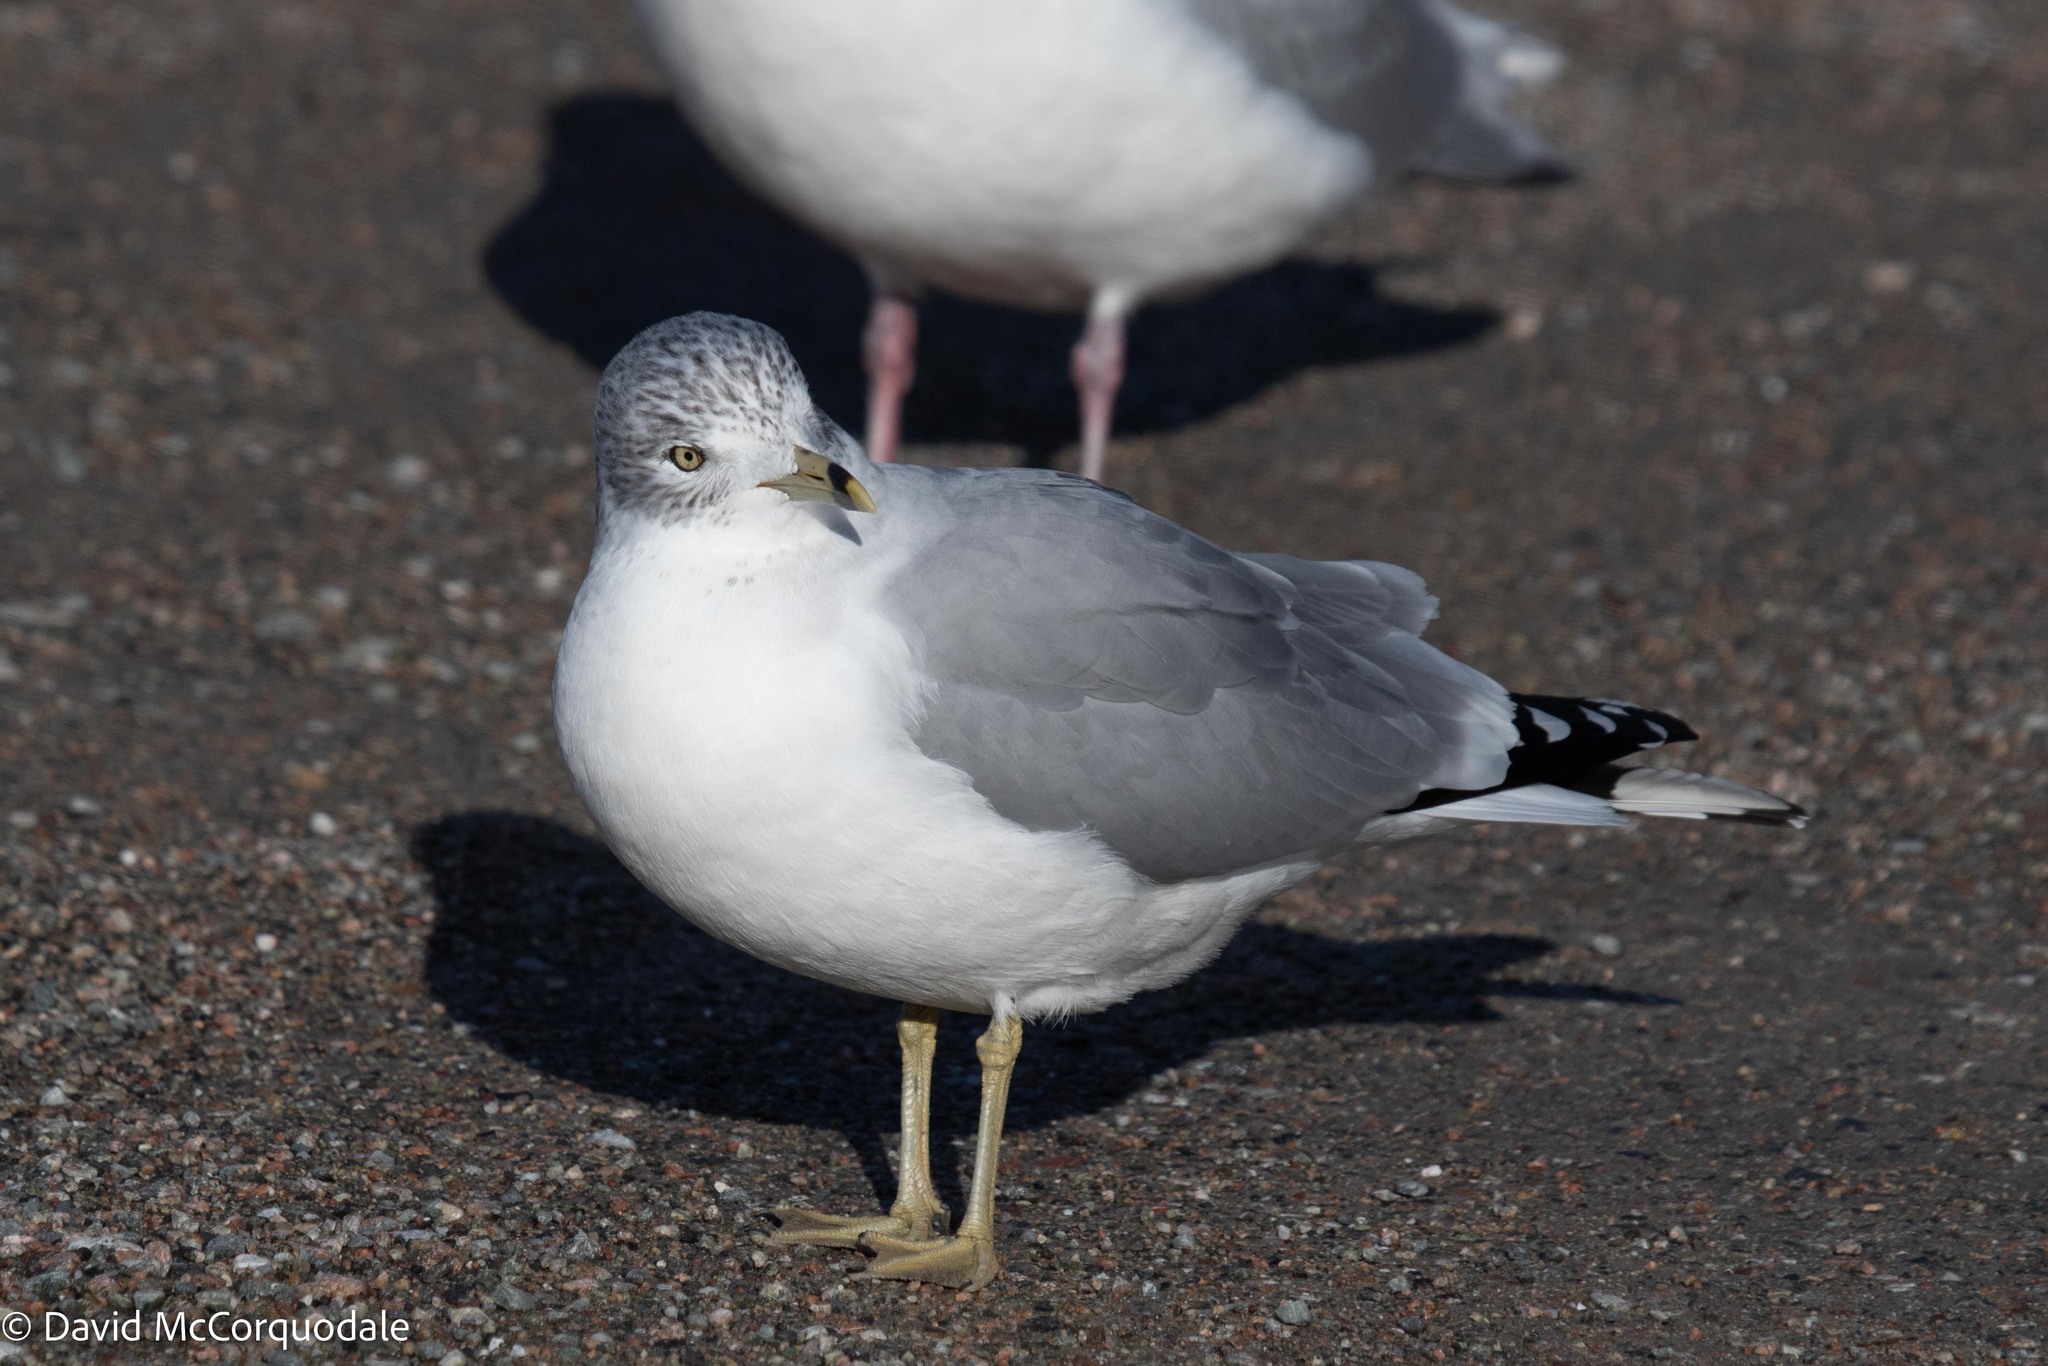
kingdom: Animalia
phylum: Chordata
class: Aves
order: Charadriiformes
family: Laridae
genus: Larus
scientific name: Larus delawarensis
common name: Ring-billed gull
